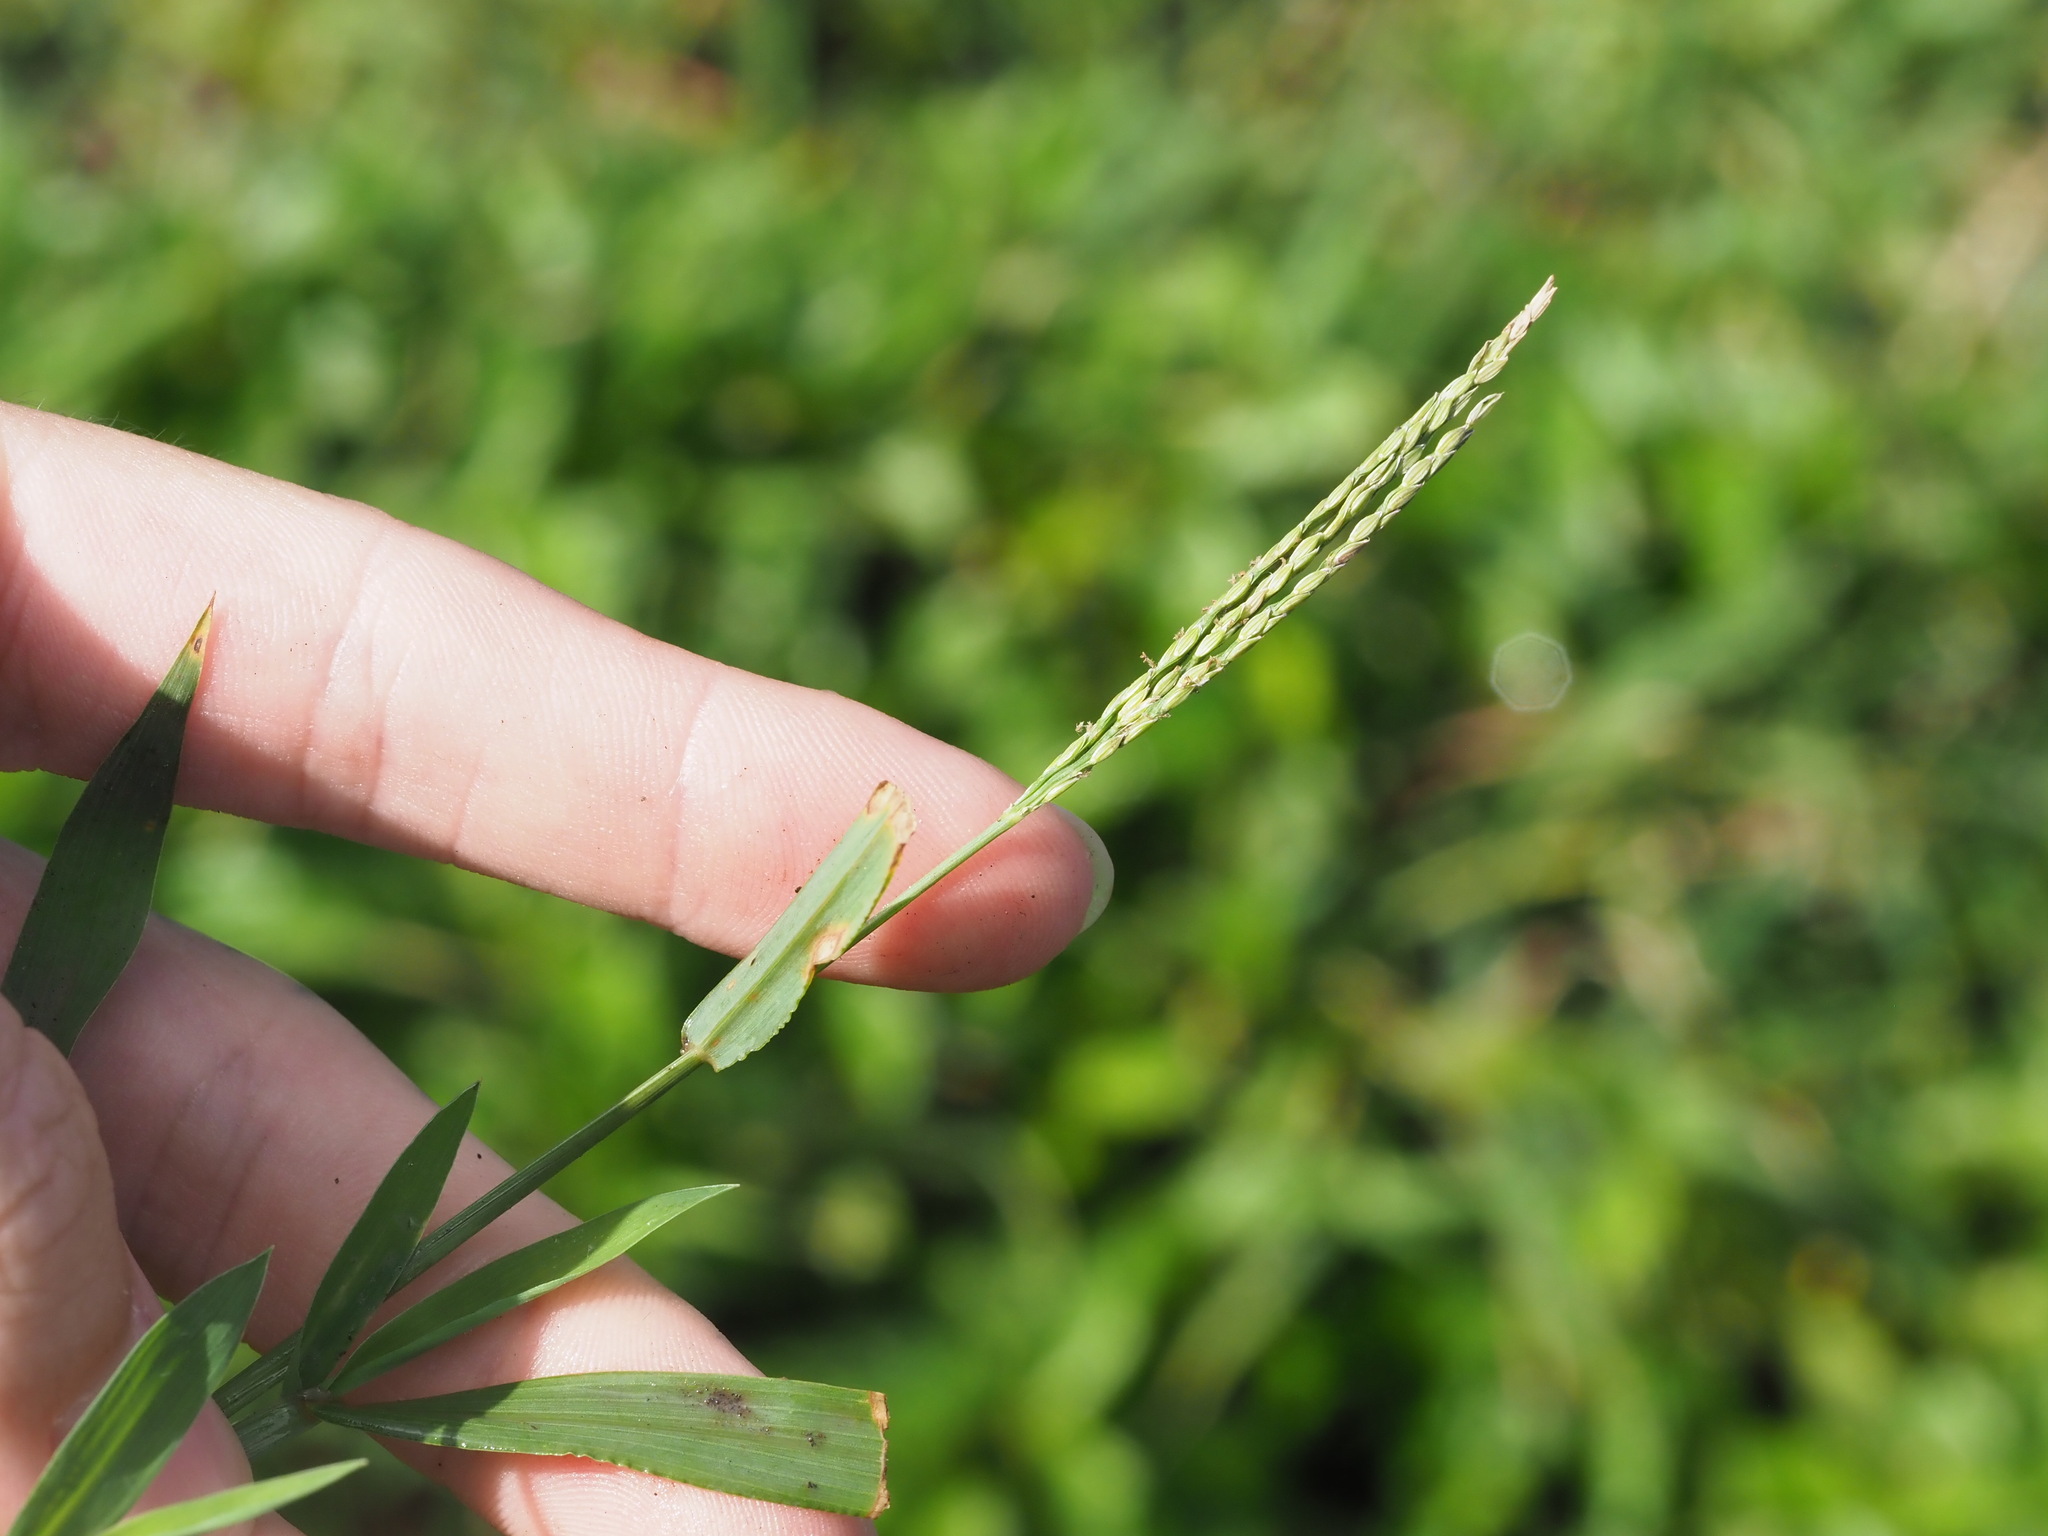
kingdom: Plantae
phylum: Tracheophyta
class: Liliopsida
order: Poales
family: Poaceae
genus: Digitaria
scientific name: Digitaria ciliaris
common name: Tropical finger-grass
